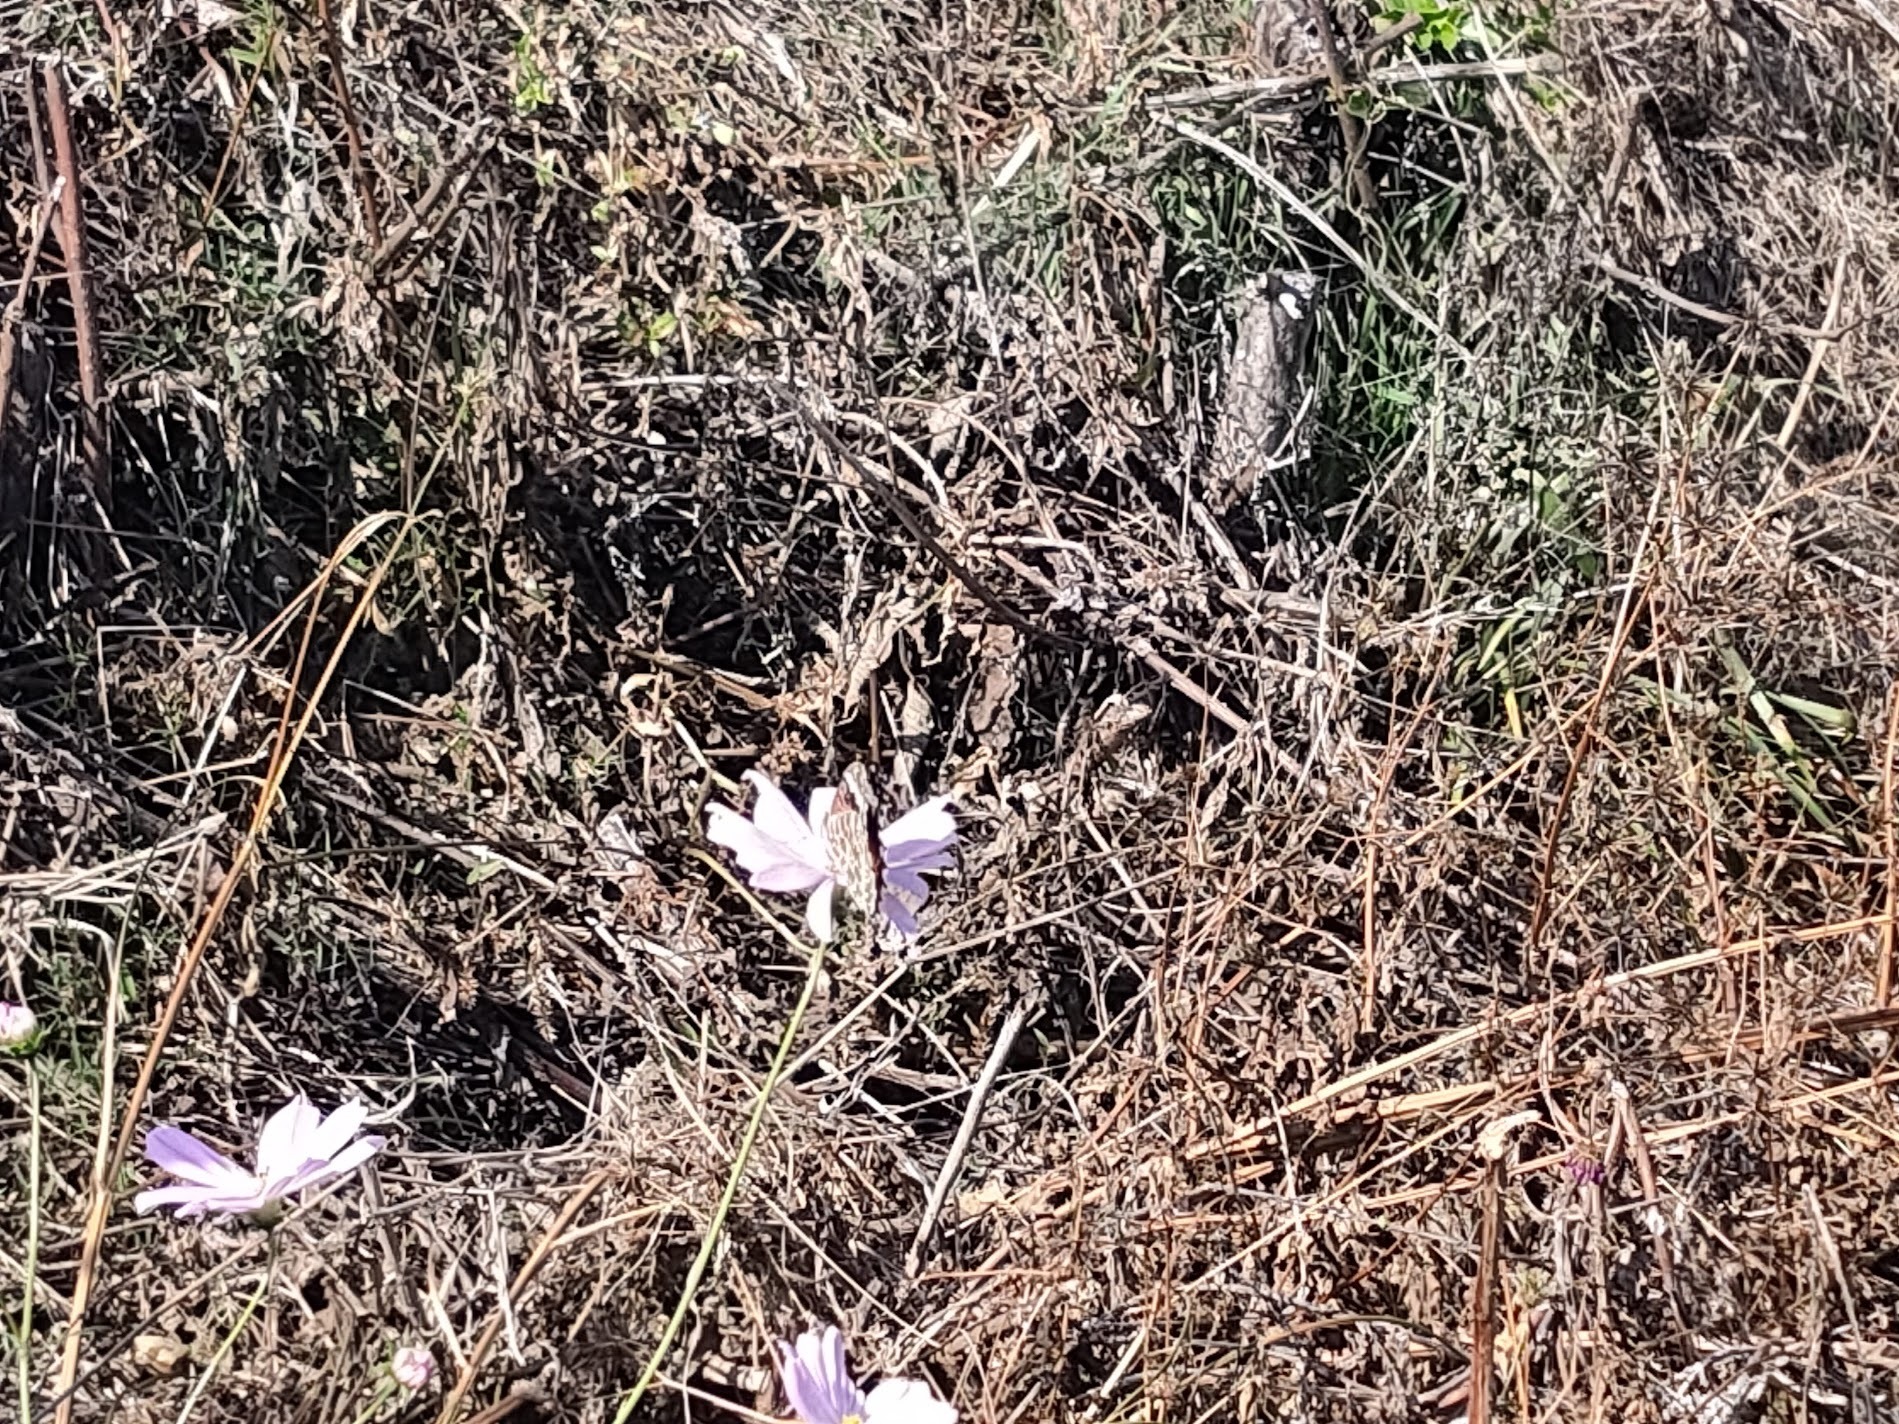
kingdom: Animalia
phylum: Arthropoda
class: Insecta
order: Lepidoptera
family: Nymphalidae
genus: Argynnis
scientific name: Argynnis hyperbius
